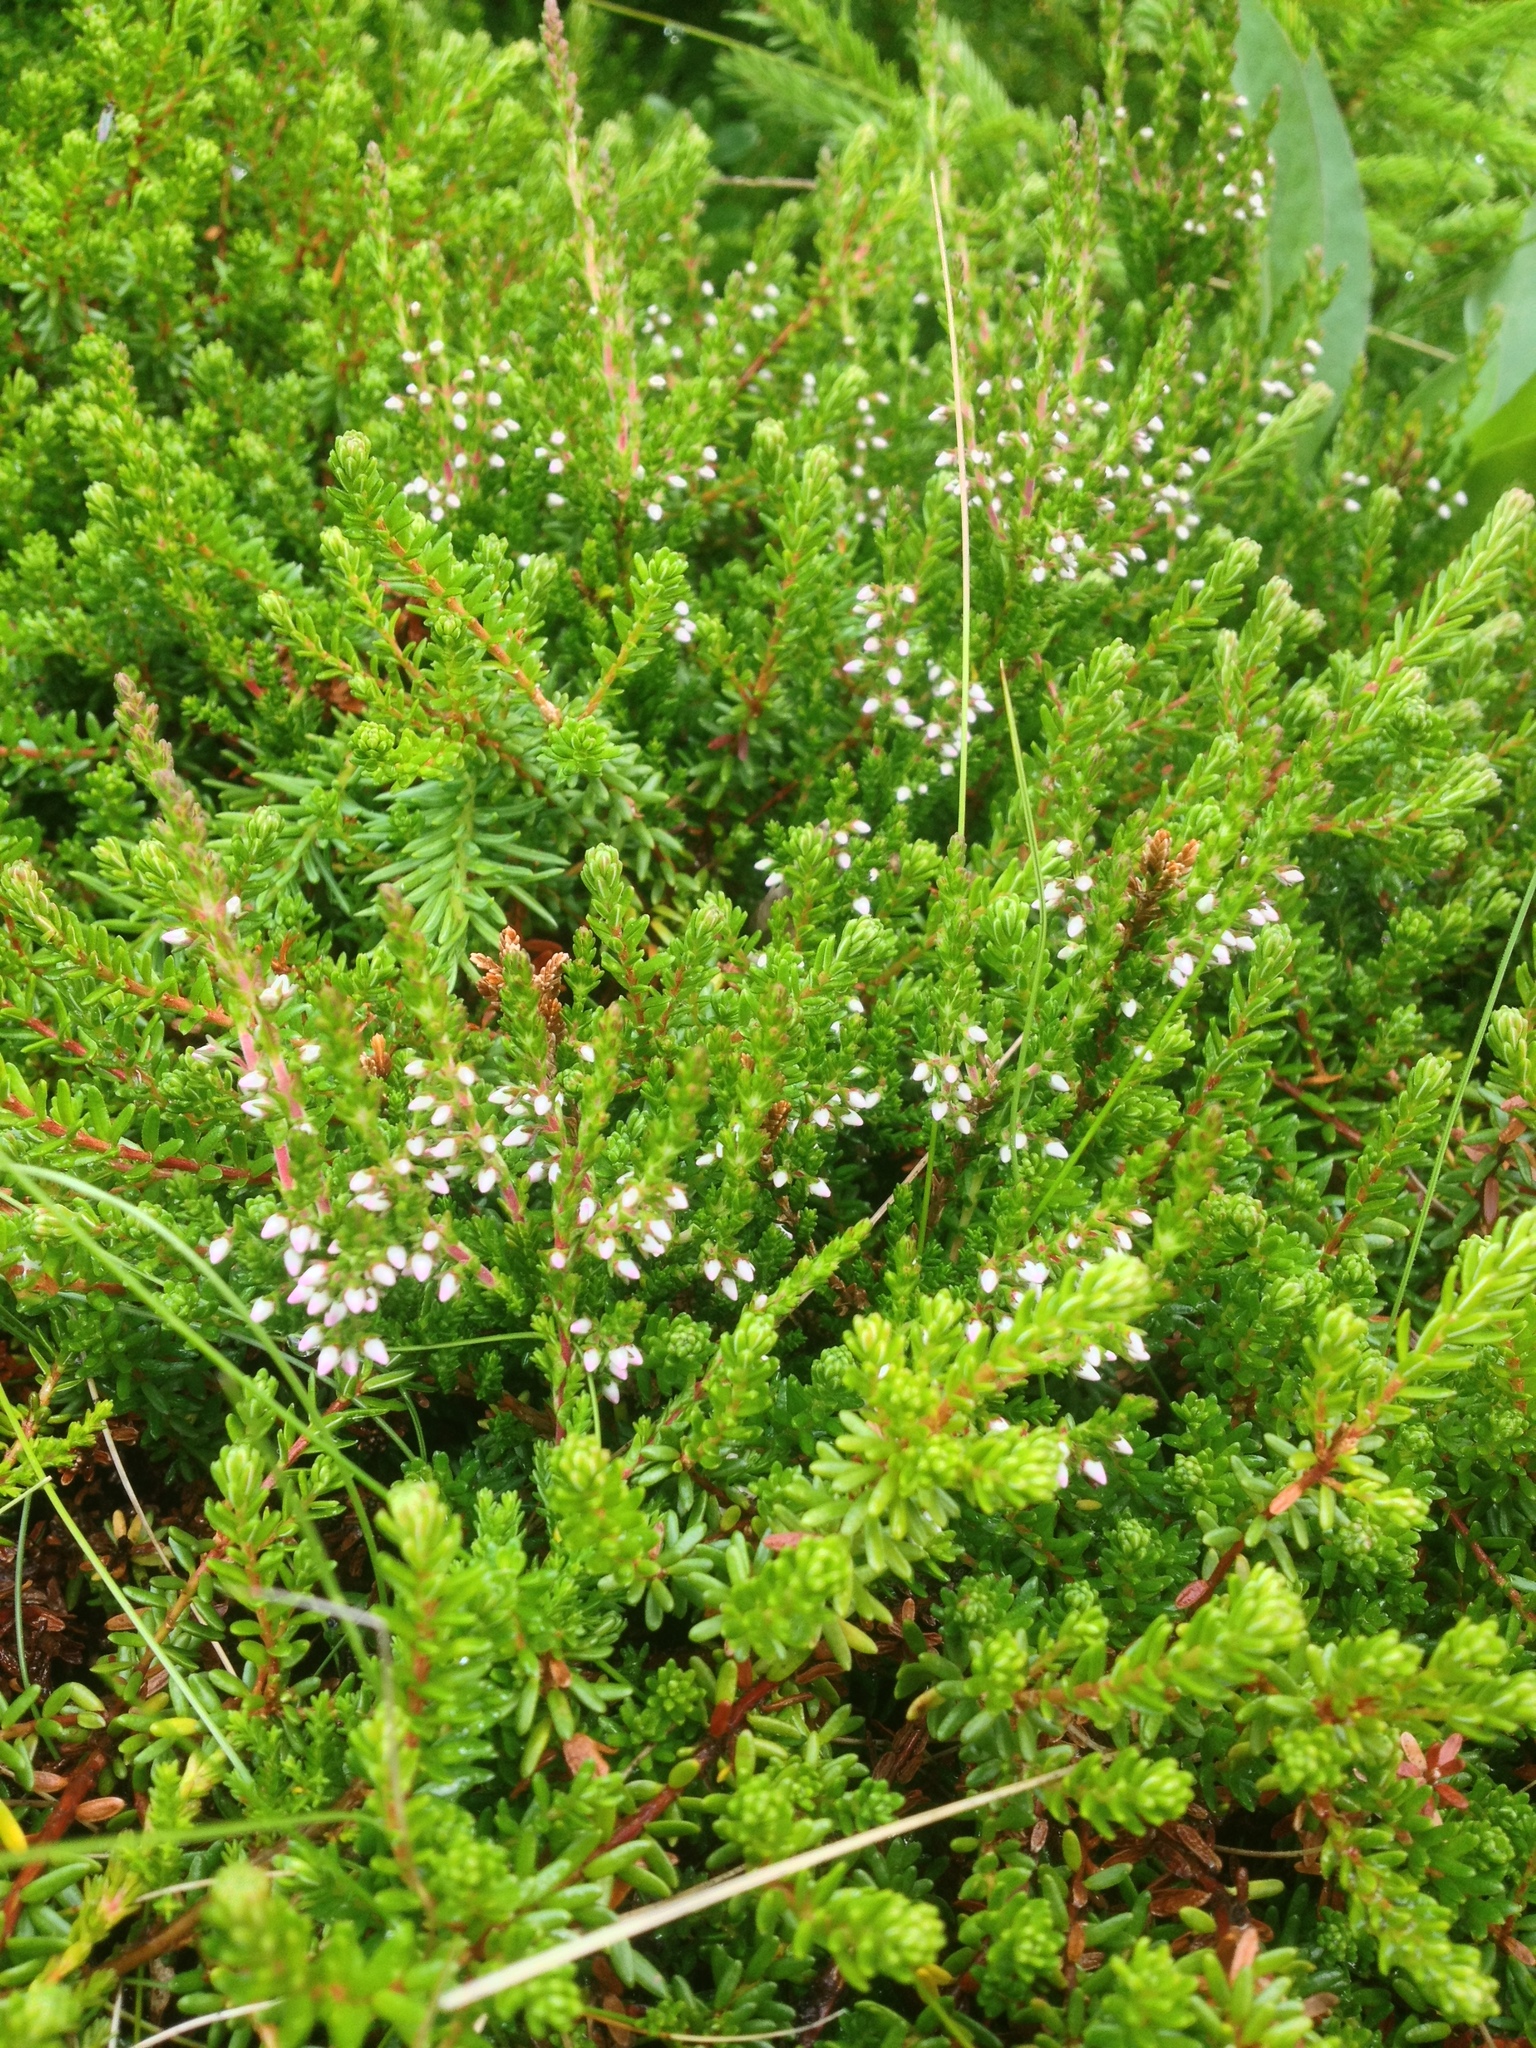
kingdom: Plantae
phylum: Tracheophyta
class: Magnoliopsida
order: Ericales
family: Ericaceae
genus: Calluna
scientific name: Calluna vulgaris
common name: Heather
